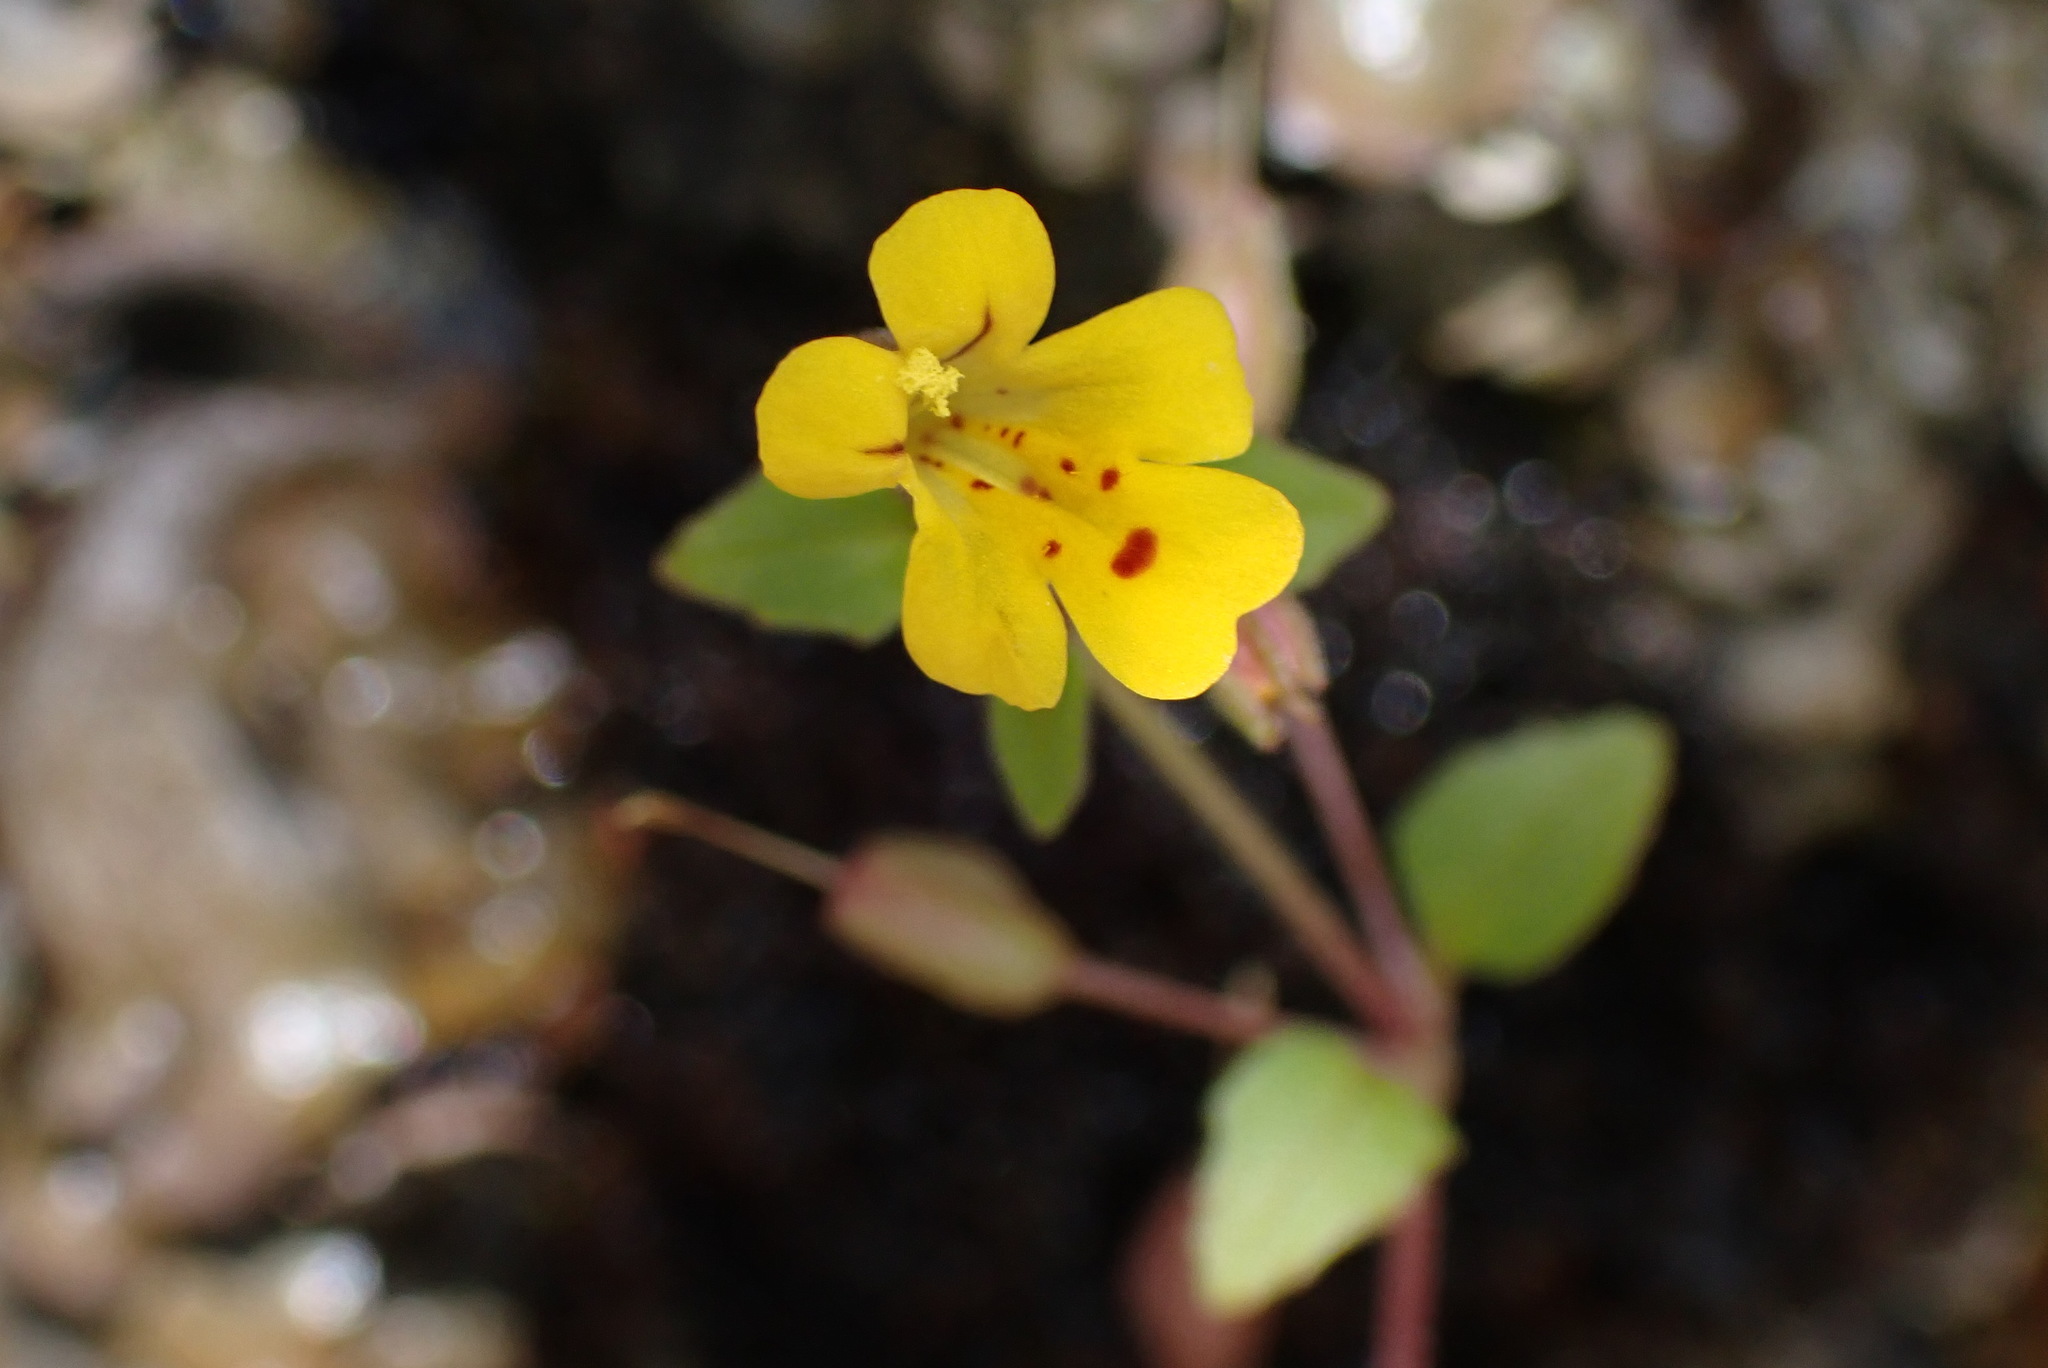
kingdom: Plantae
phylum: Tracheophyta
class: Magnoliopsida
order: Lamiales
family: Phrymaceae
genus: Erythranthe
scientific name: Erythranthe alsinoides
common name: Chickweed monkeyflower
